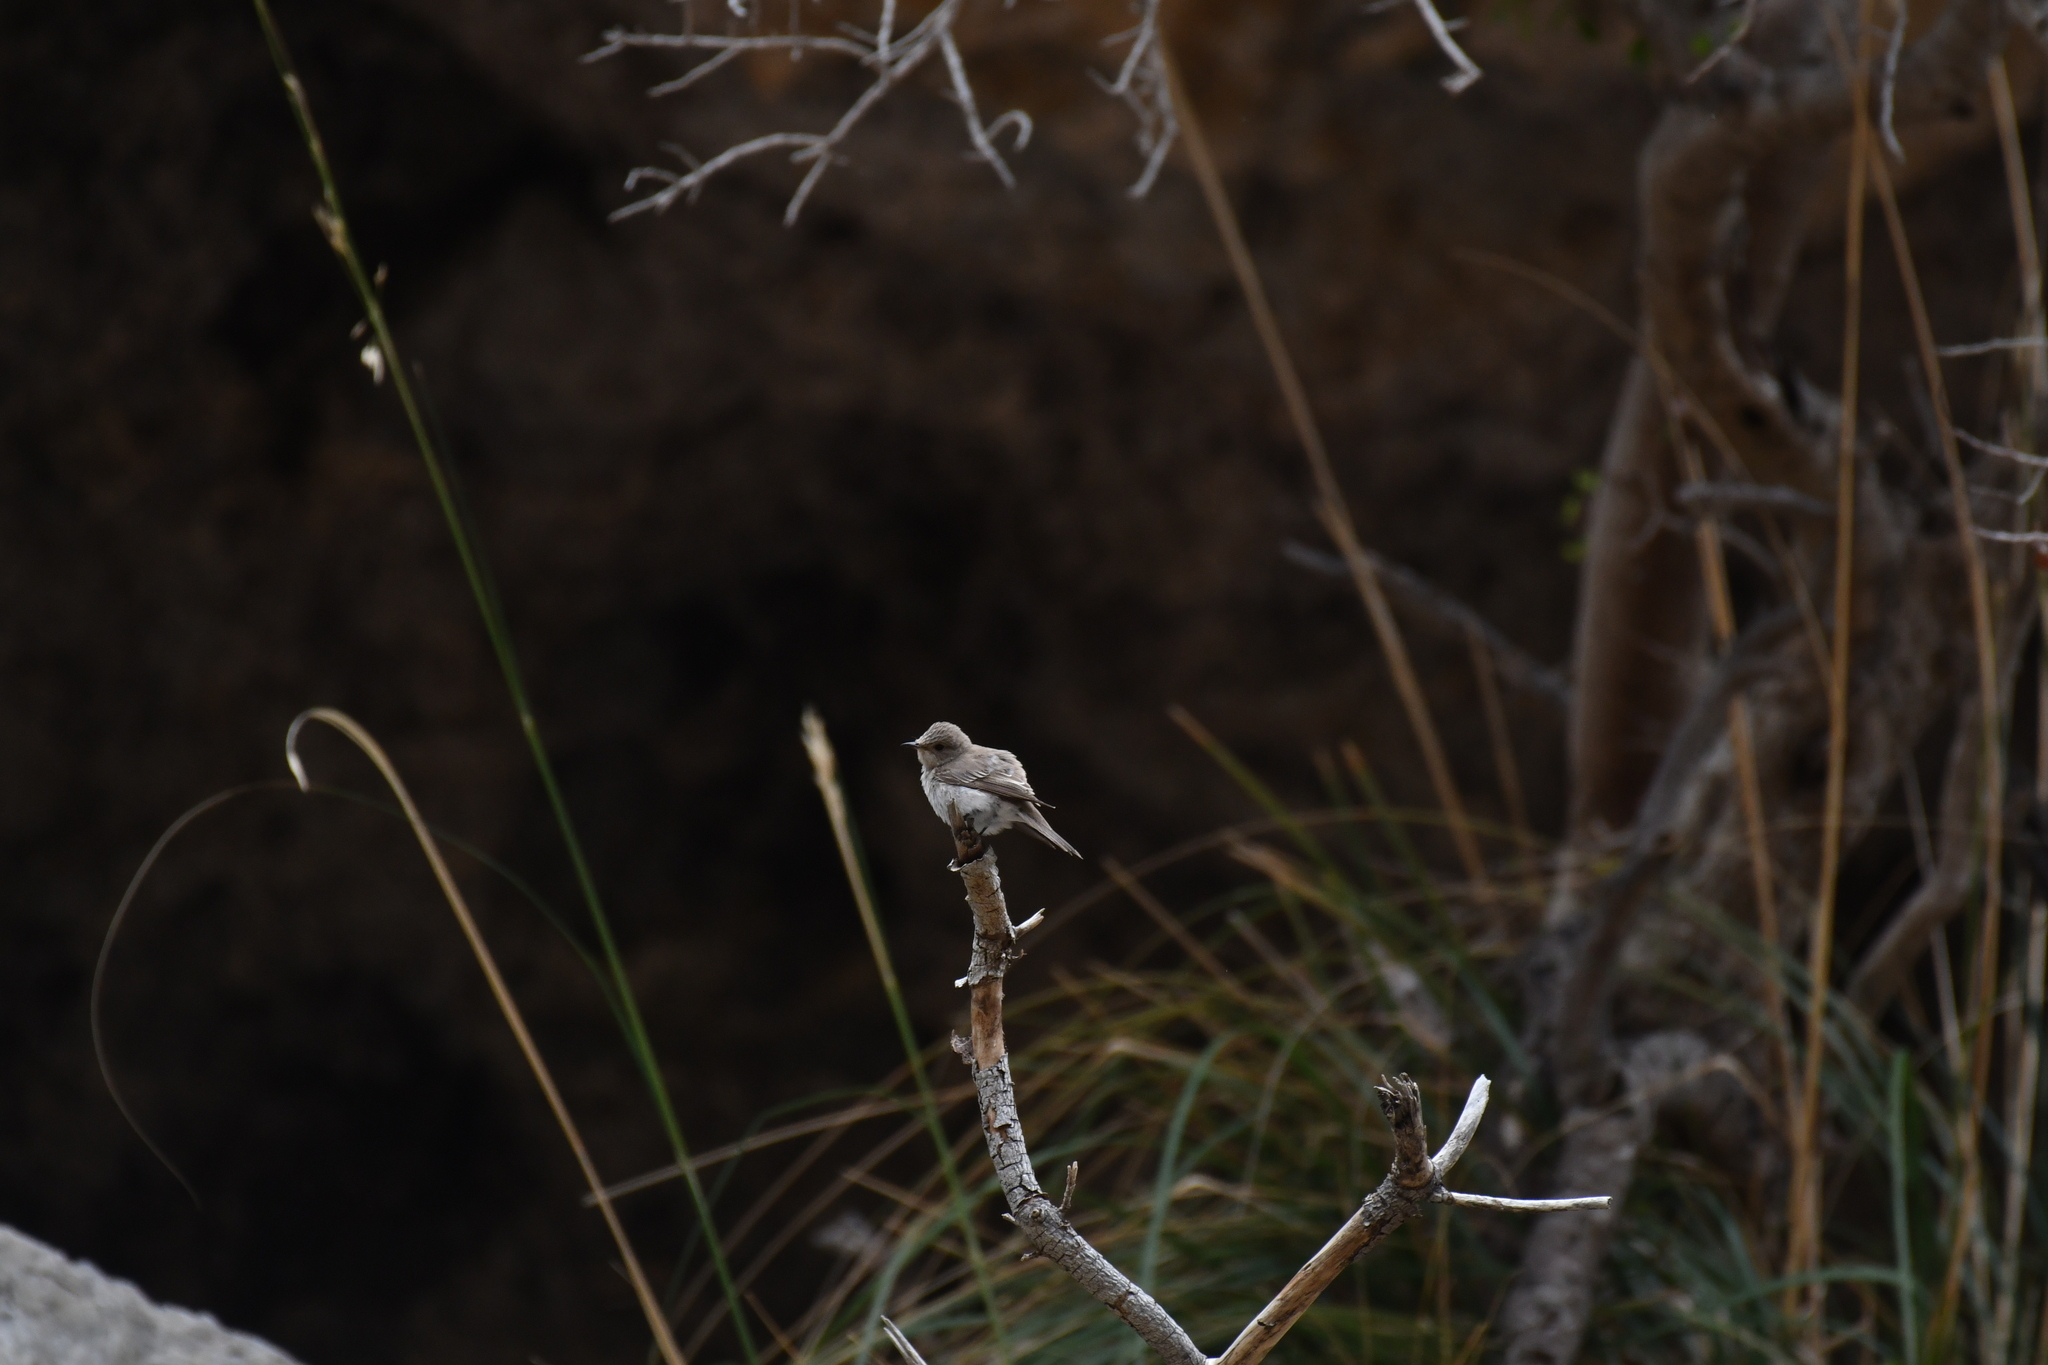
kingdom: Animalia
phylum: Chordata
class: Aves
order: Passeriformes
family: Muscicapidae
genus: Muscicapa
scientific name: Muscicapa striata
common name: Spotted flycatcher
